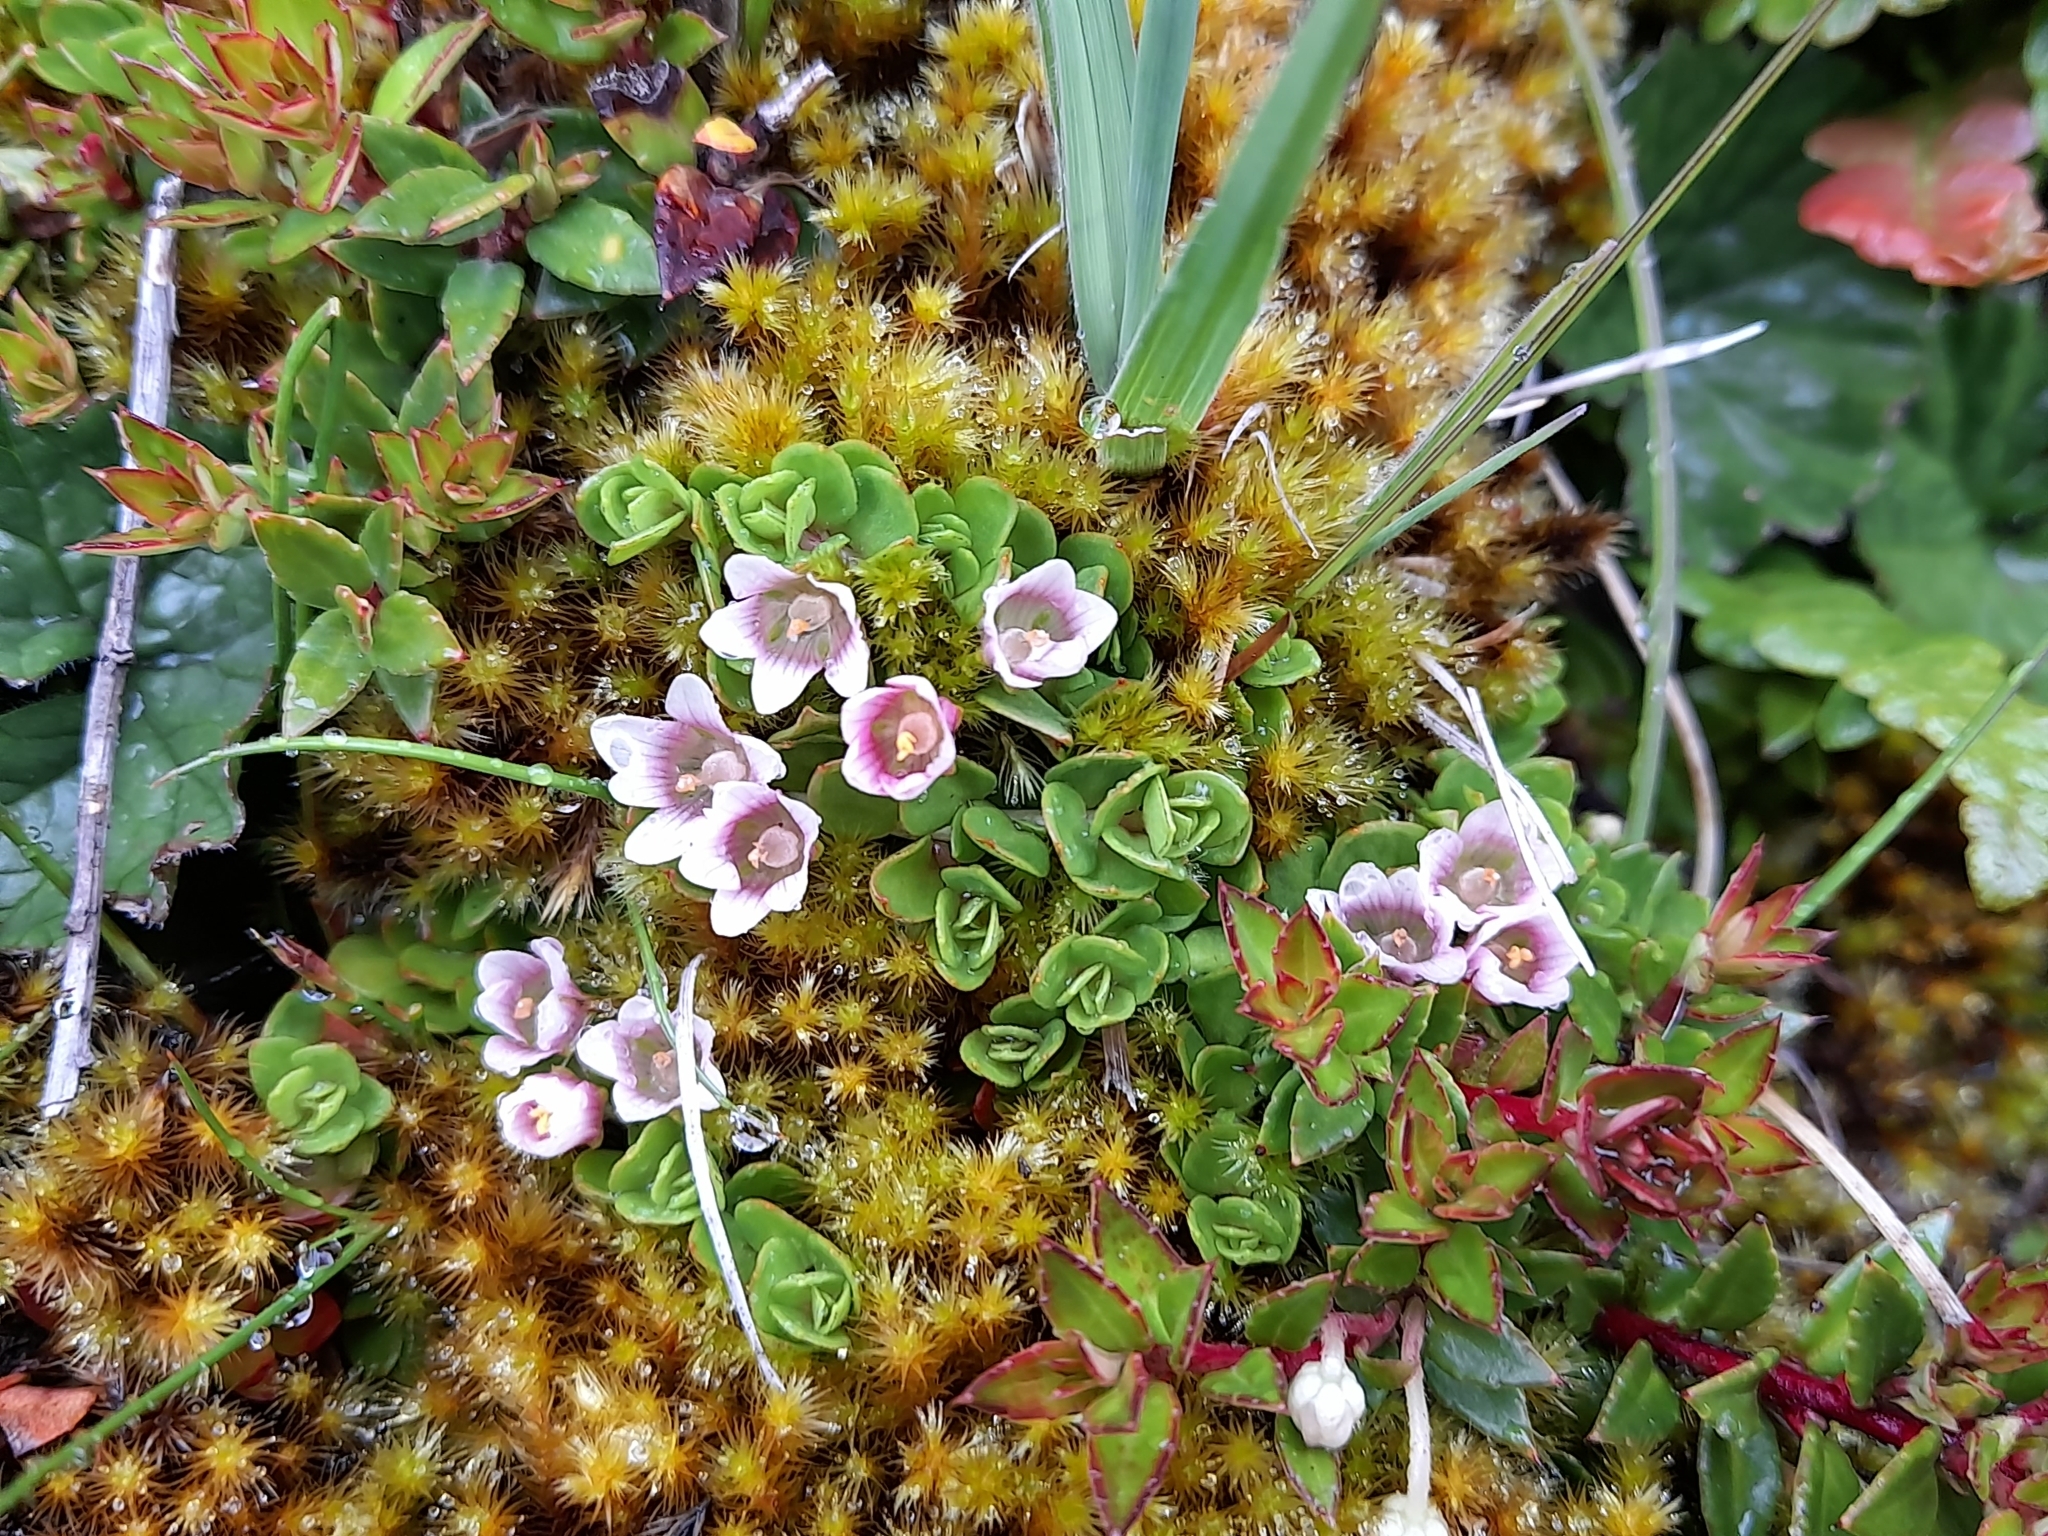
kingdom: Plantae
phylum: Tracheophyta
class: Magnoliopsida
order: Ericales
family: Primulaceae
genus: Lysimachia
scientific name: Lysimachia amoena
